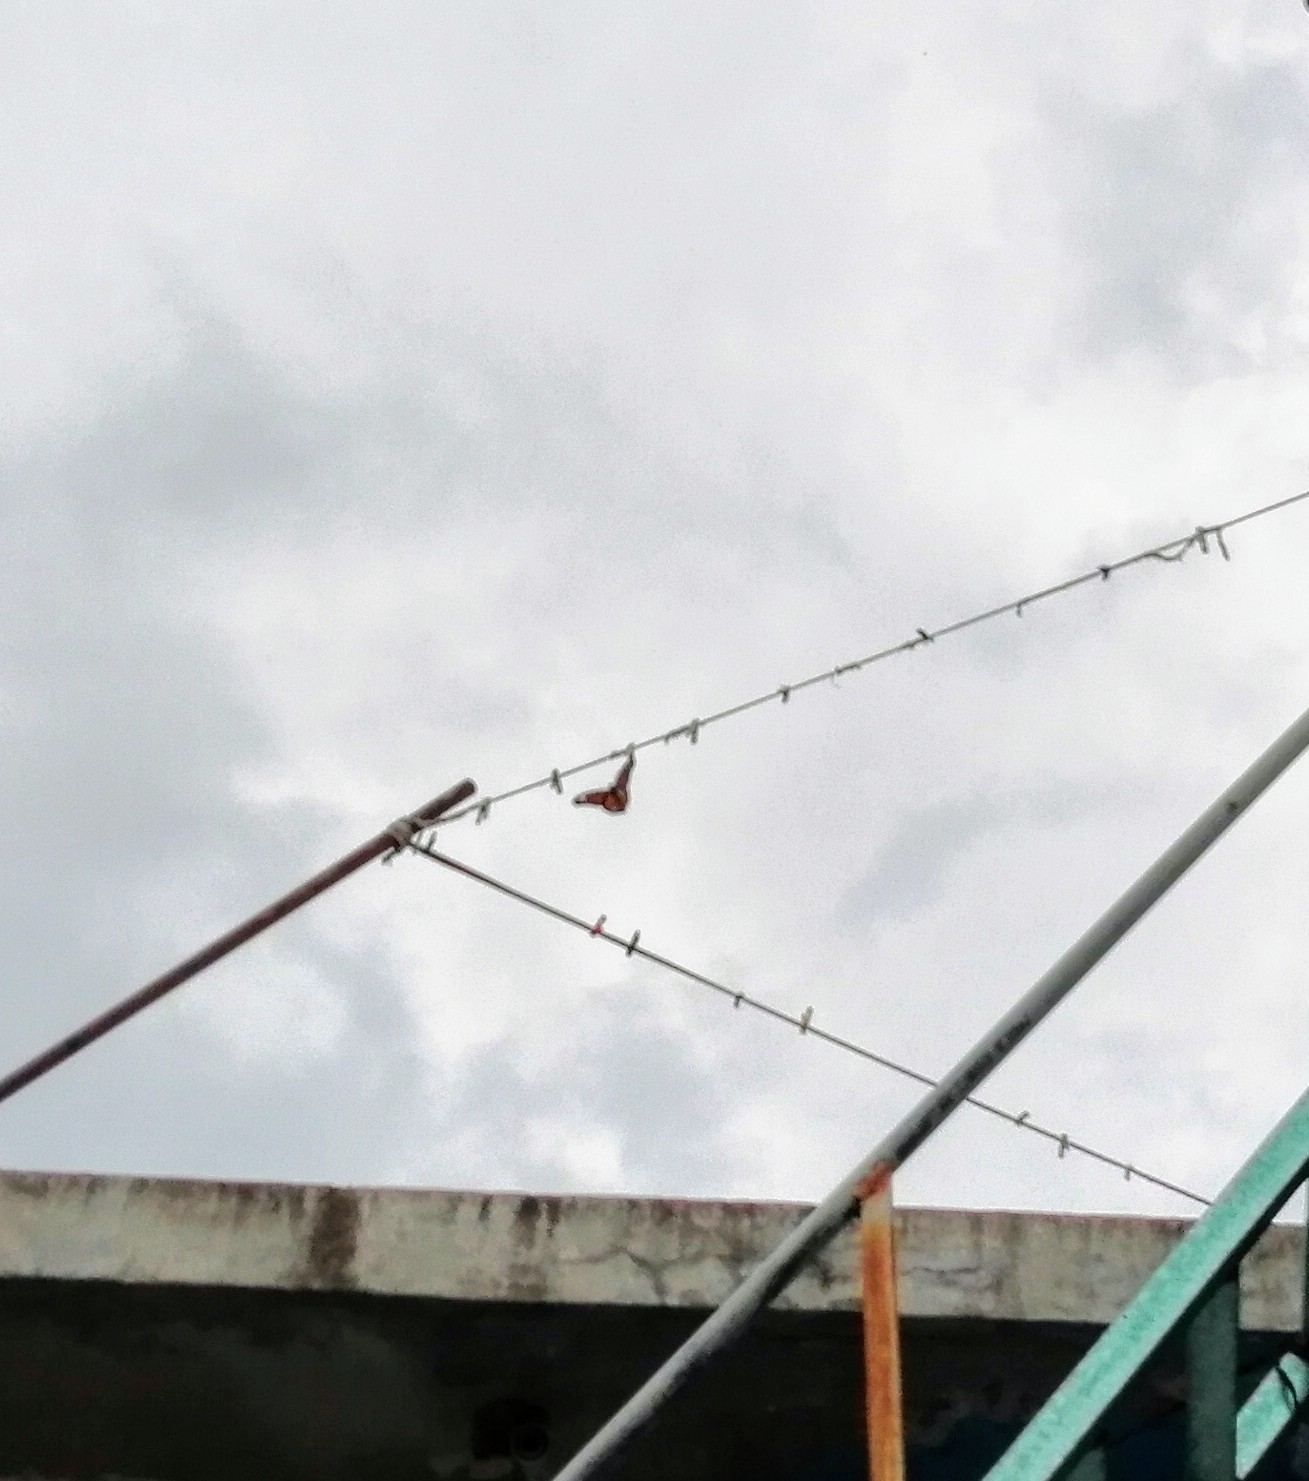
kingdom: Animalia
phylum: Arthropoda
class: Insecta
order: Lepidoptera
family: Nymphalidae
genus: Danaus
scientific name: Danaus plexippus
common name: Monarch
